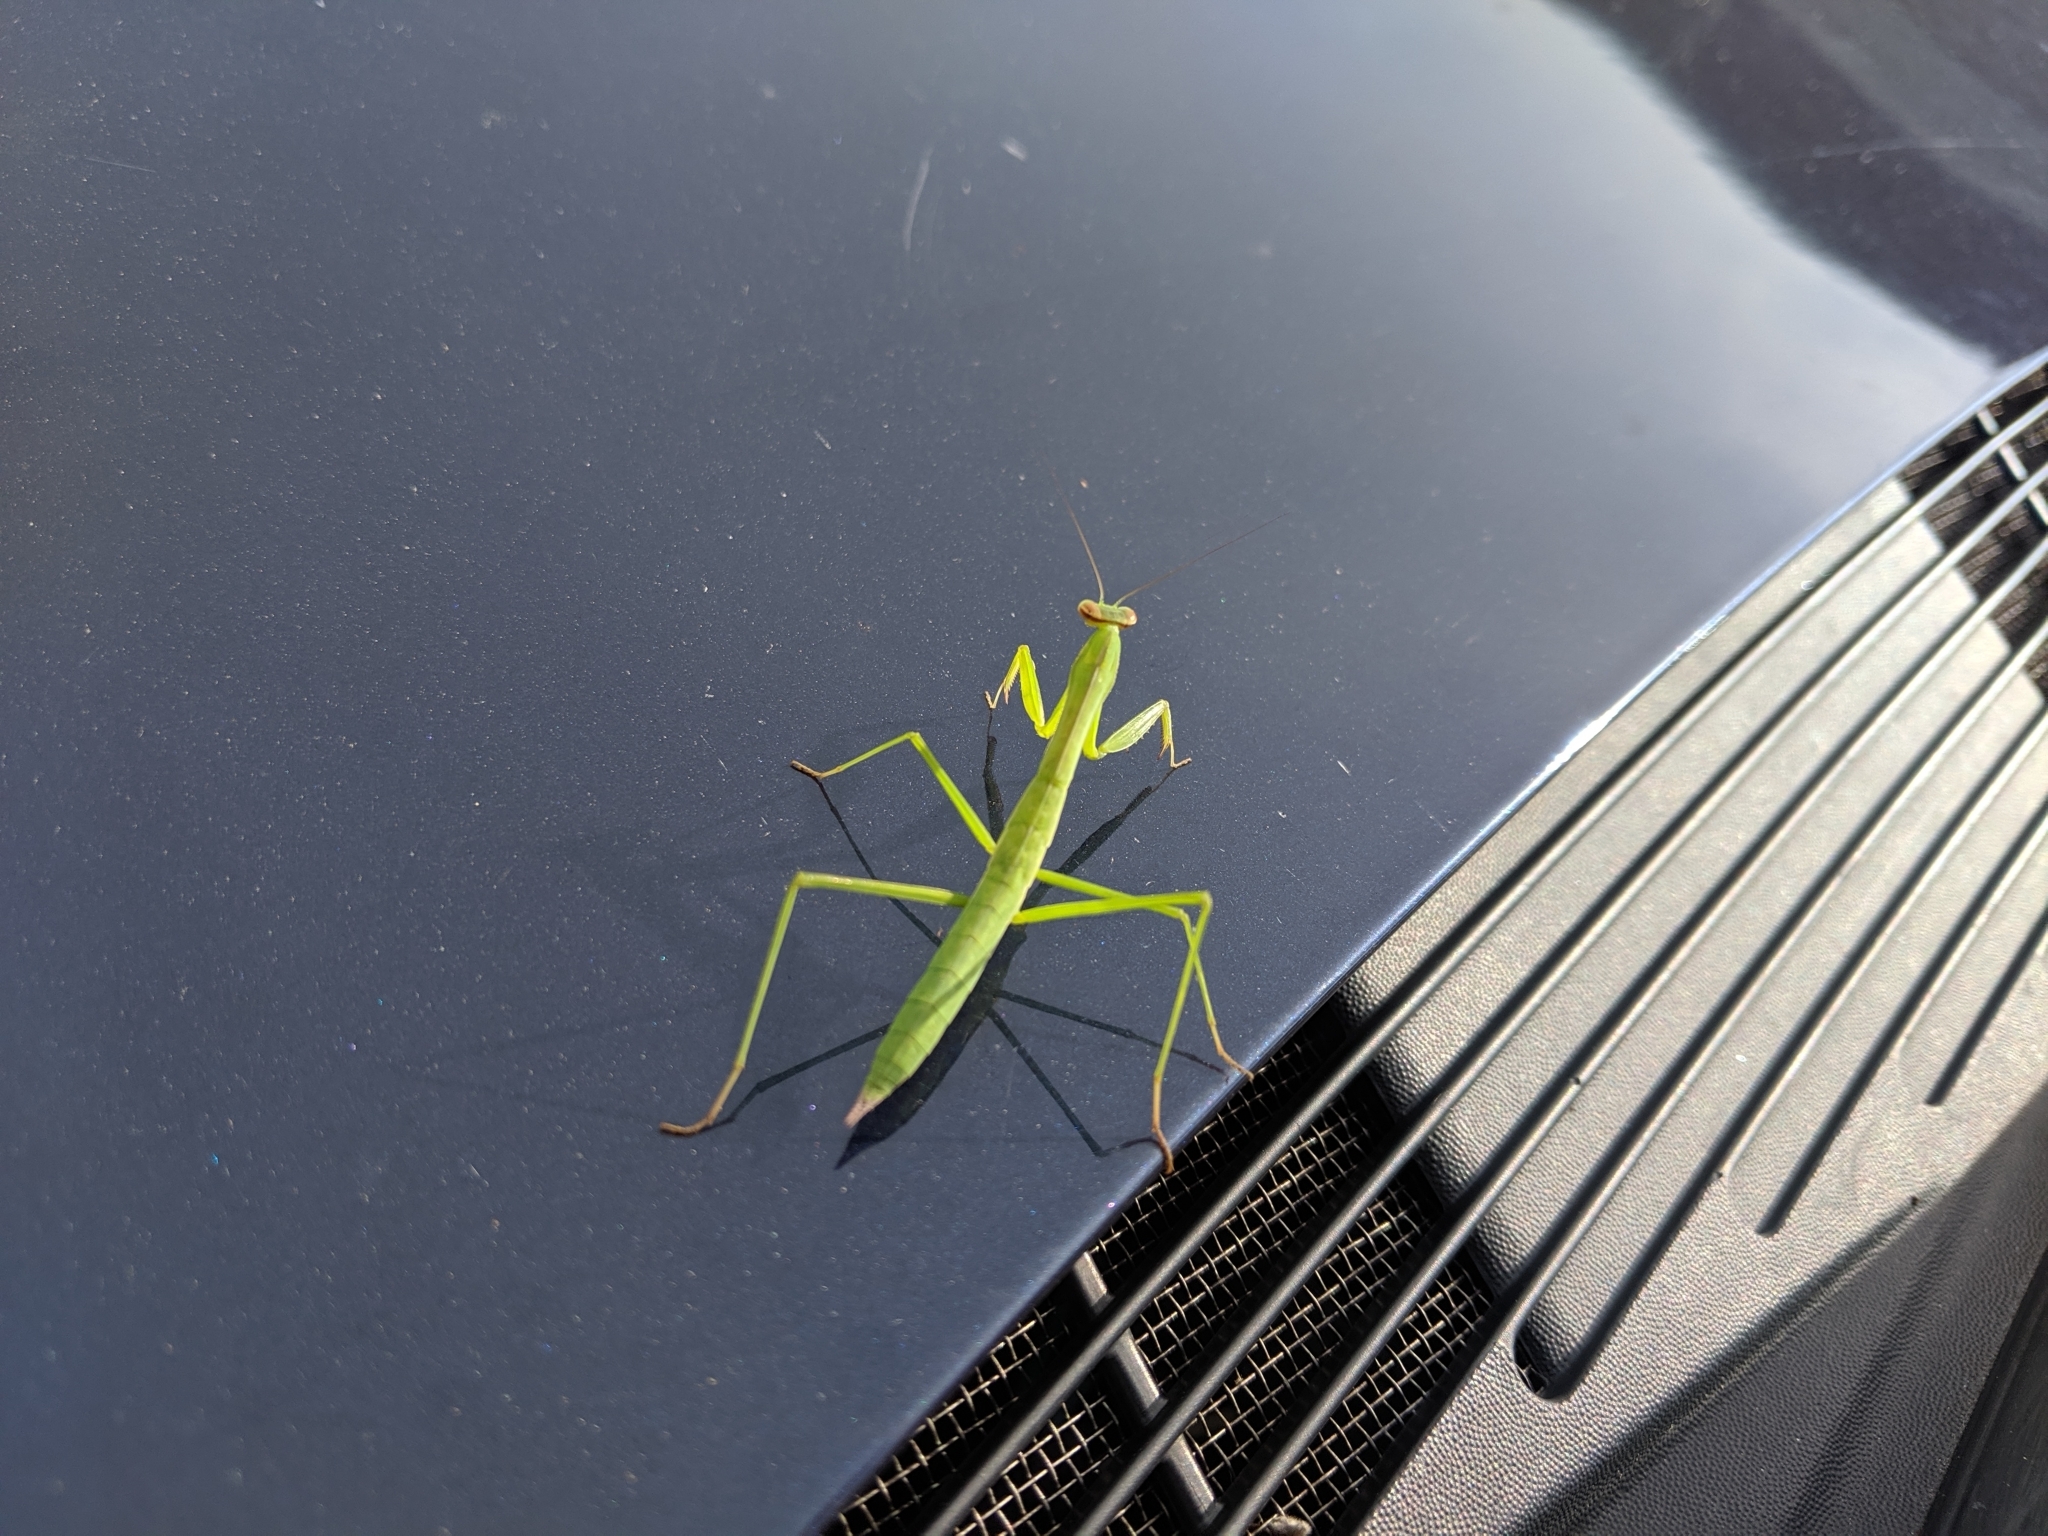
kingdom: Animalia
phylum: Arthropoda
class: Insecta
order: Mantodea
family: Mantidae
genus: Tenodera
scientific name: Tenodera sinensis
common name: Chinese mantis
